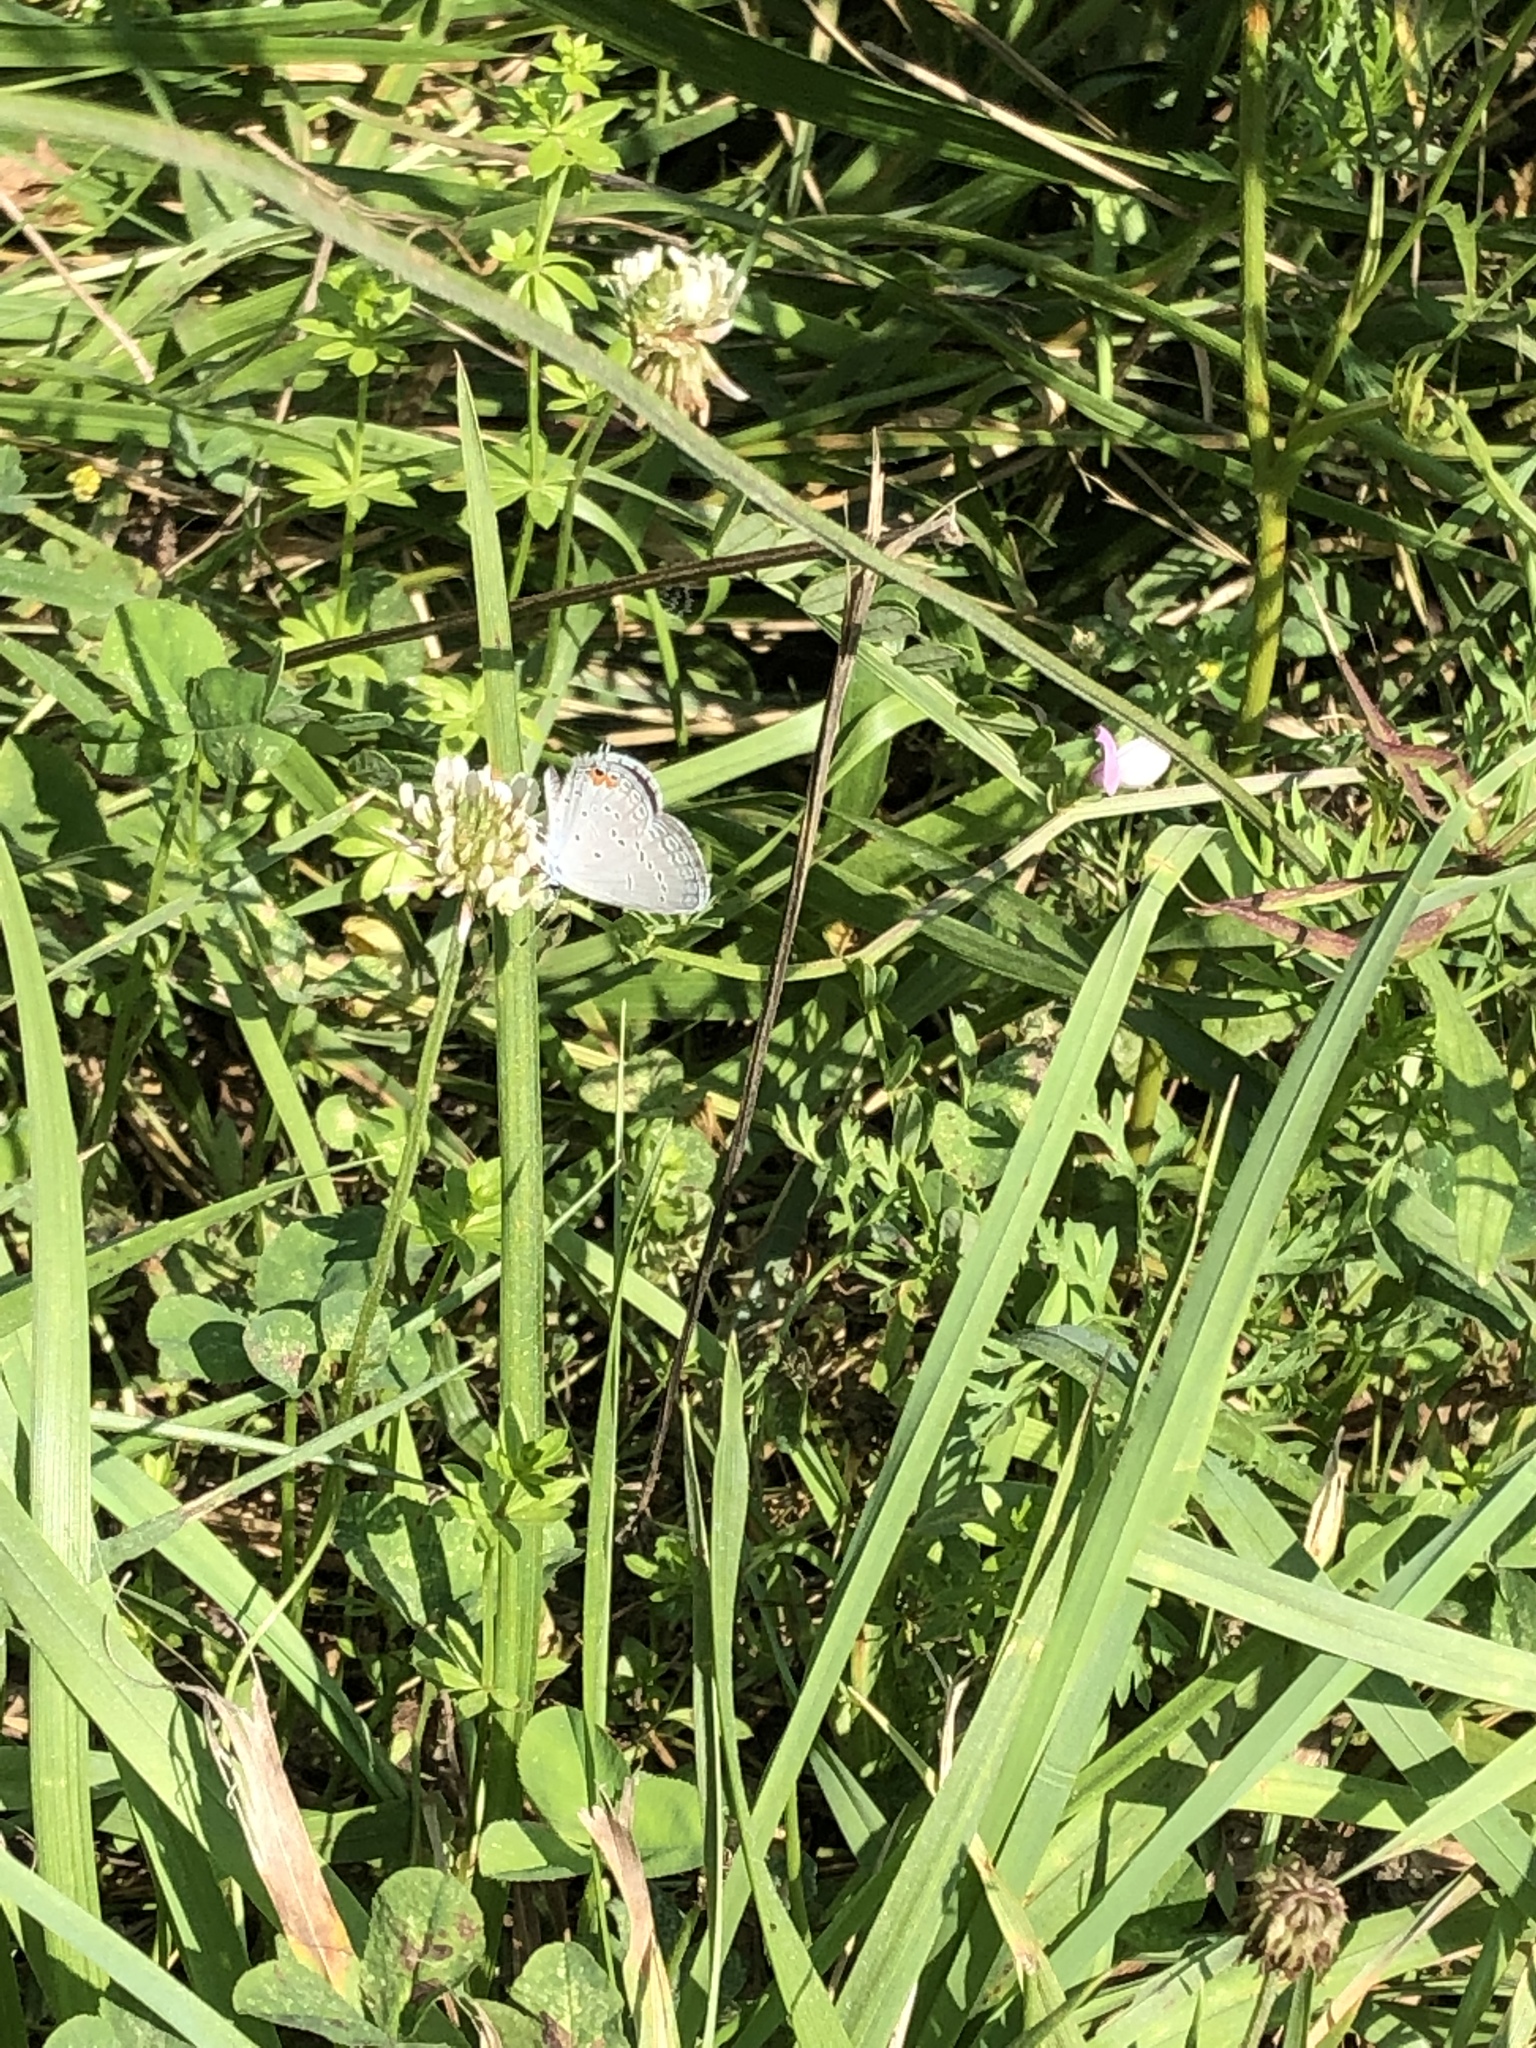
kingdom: Animalia
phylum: Arthropoda
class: Insecta
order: Lepidoptera
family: Lycaenidae
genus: Elkalyce
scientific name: Elkalyce comyntas
